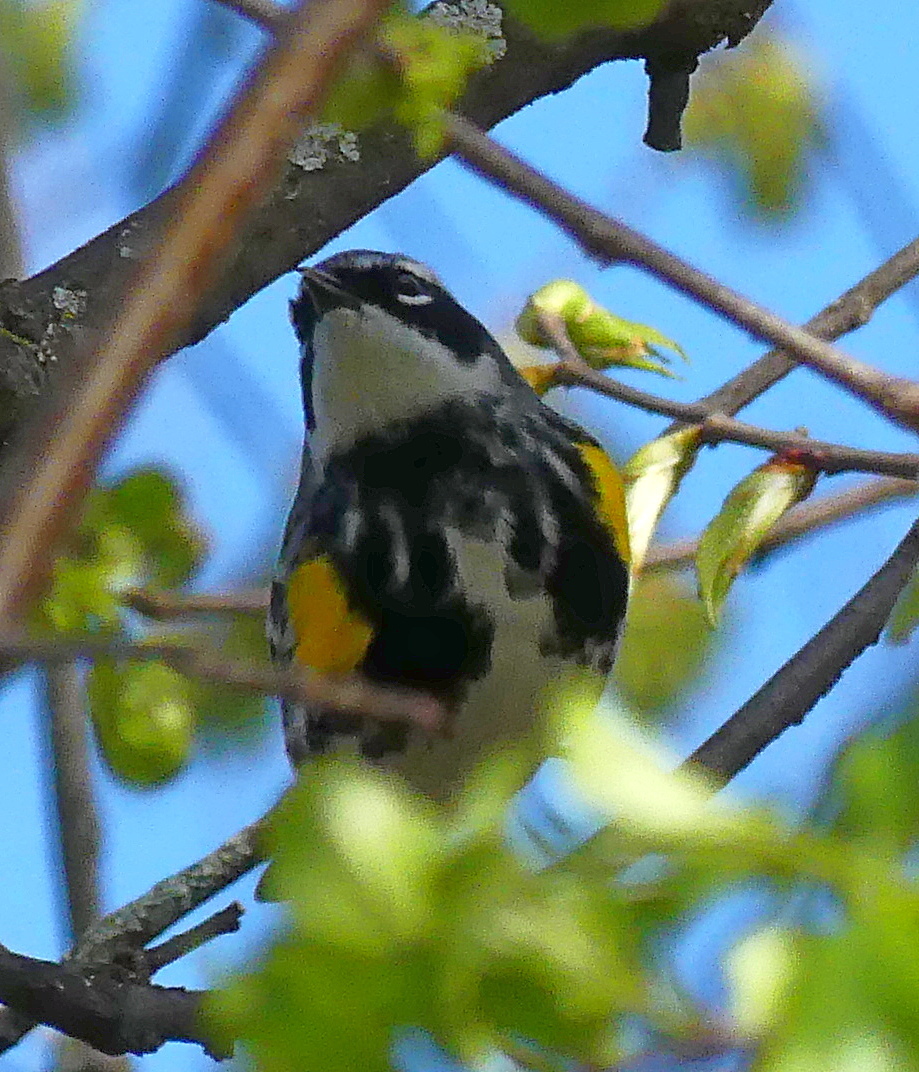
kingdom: Animalia
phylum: Chordata
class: Aves
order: Passeriformes
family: Parulidae
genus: Setophaga
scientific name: Setophaga coronata
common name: Myrtle warbler
